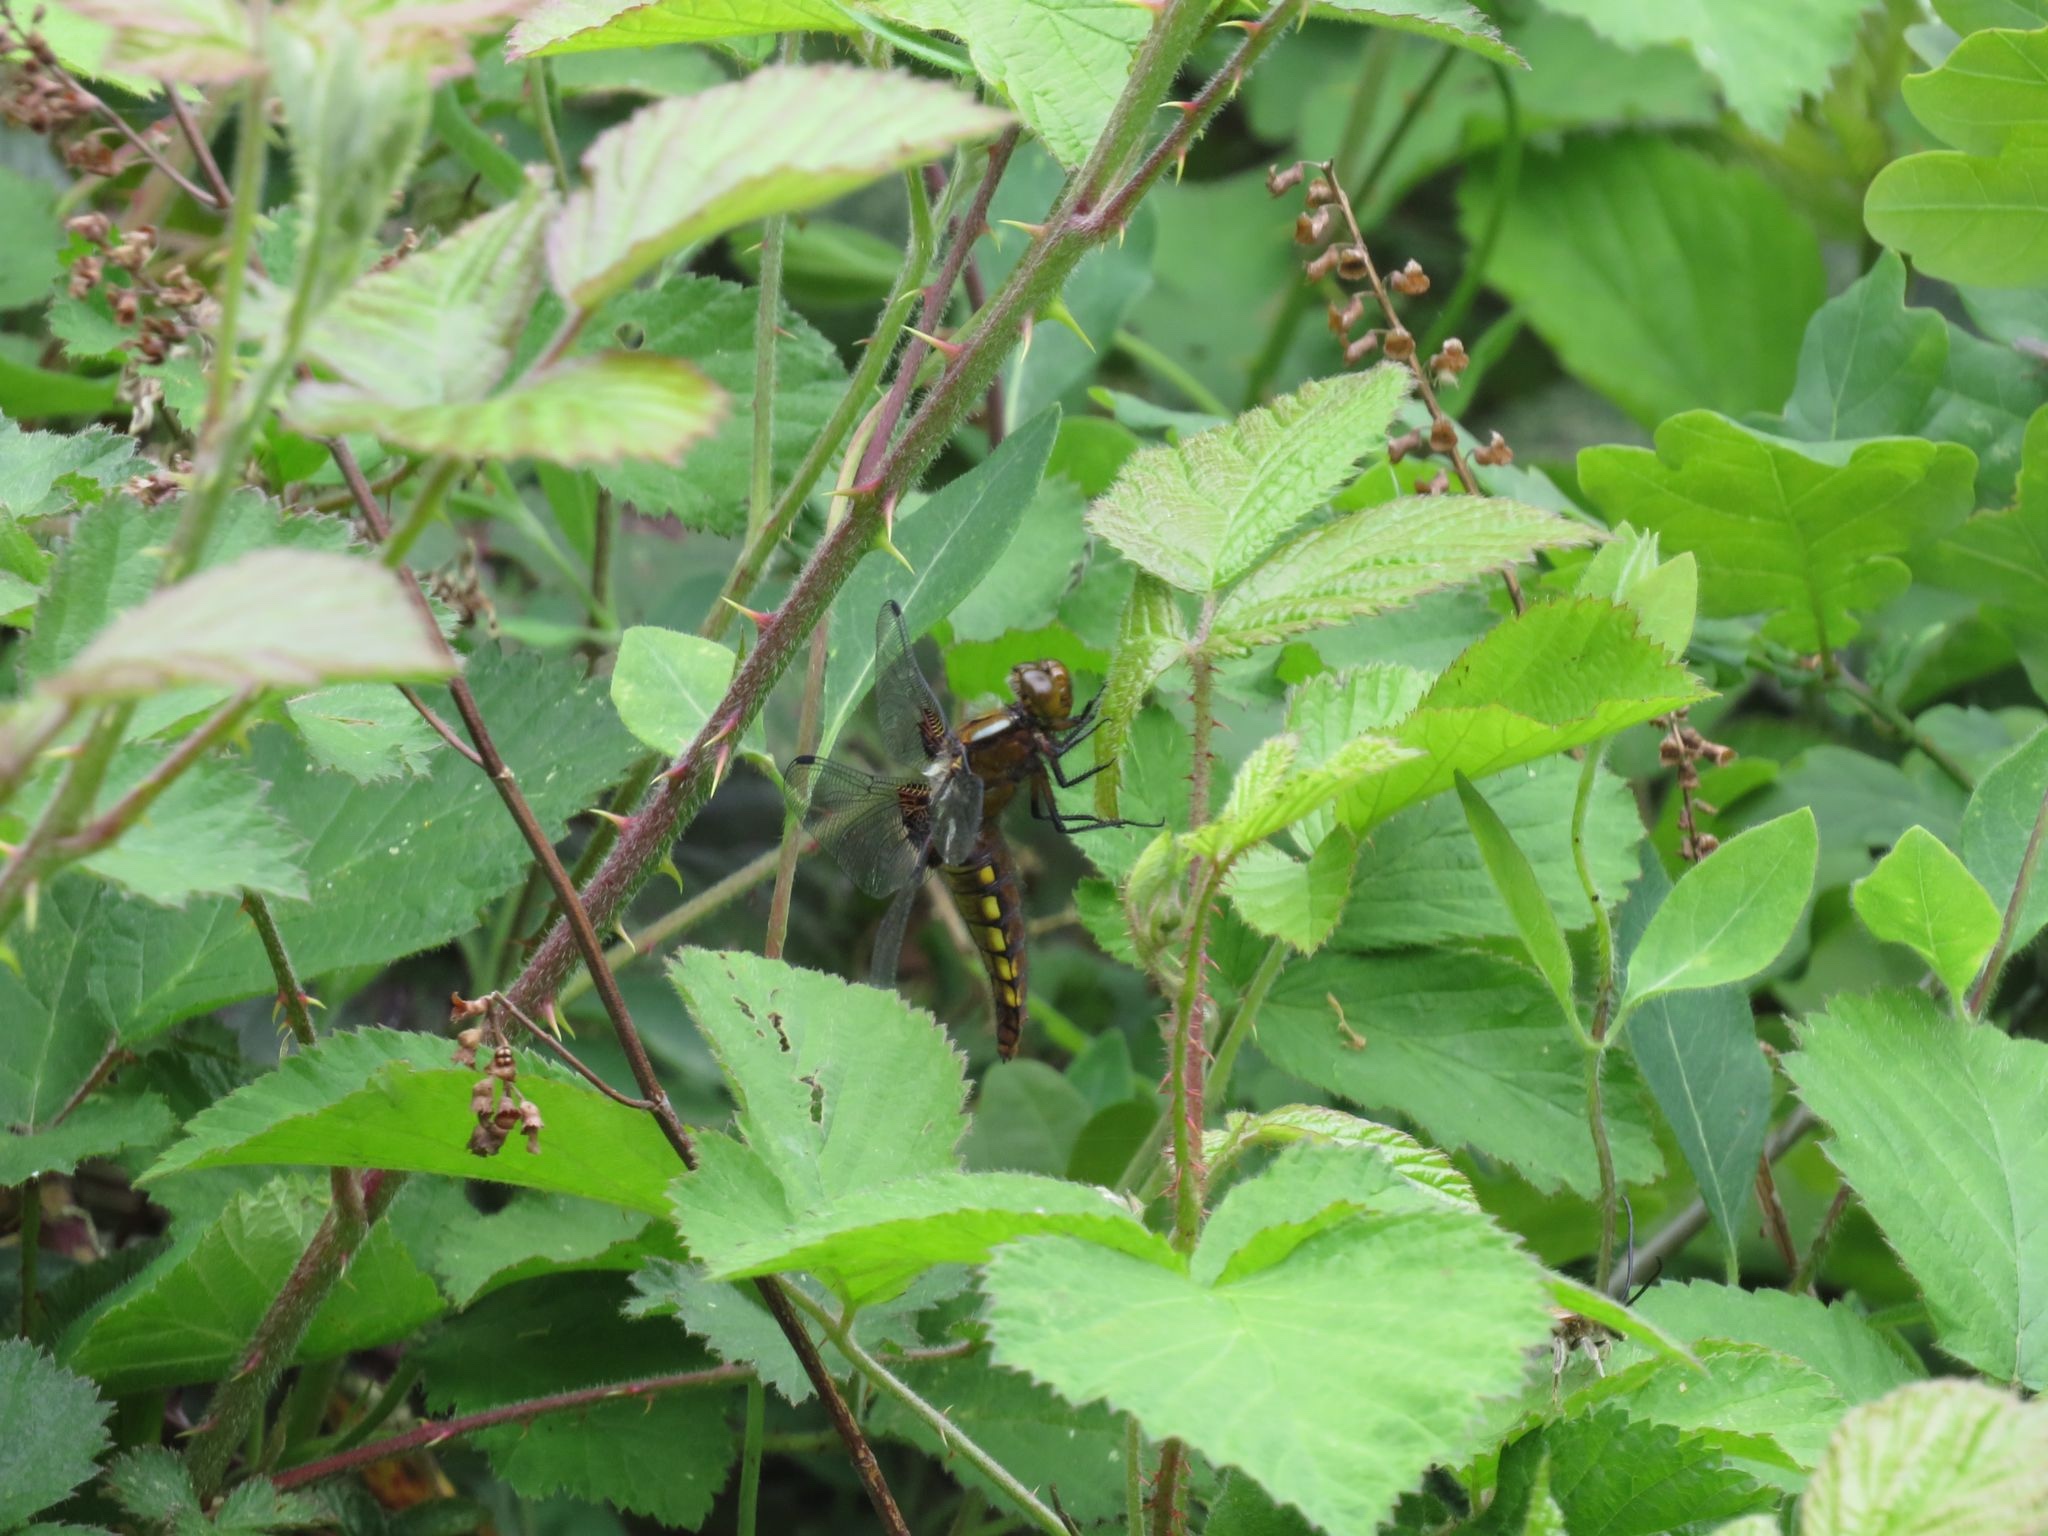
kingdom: Animalia
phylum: Arthropoda
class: Insecta
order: Odonata
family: Libellulidae
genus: Libellula
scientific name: Libellula depressa
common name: Broad-bodied chaser
